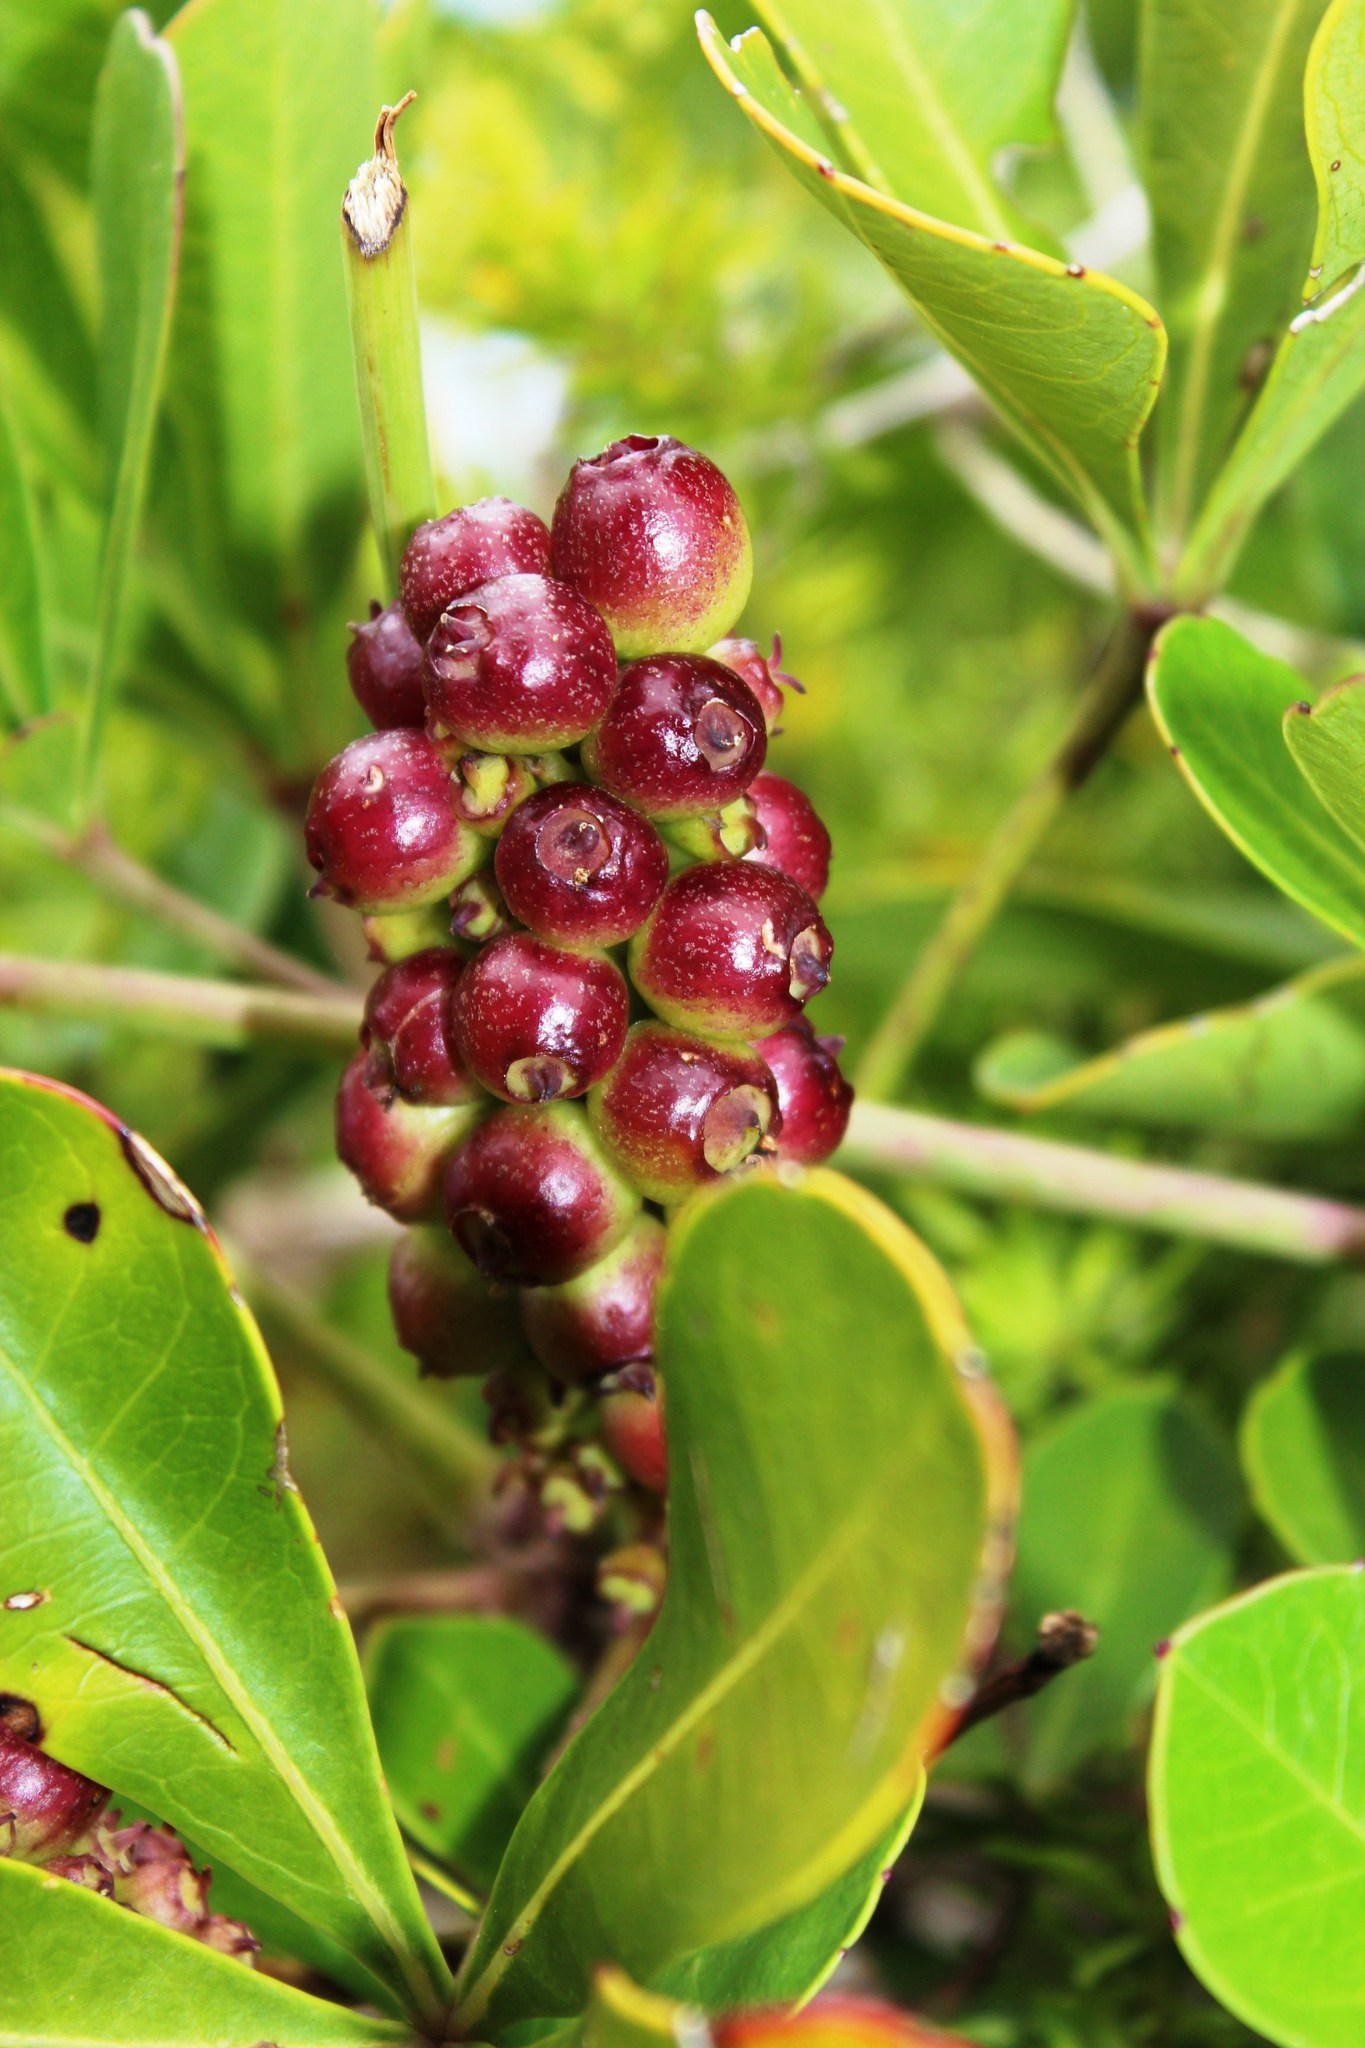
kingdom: Plantae
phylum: Tracheophyta
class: Magnoliopsida
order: Apiales
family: Araliaceae
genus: Cussonia
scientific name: Cussonia thyrsiflora
